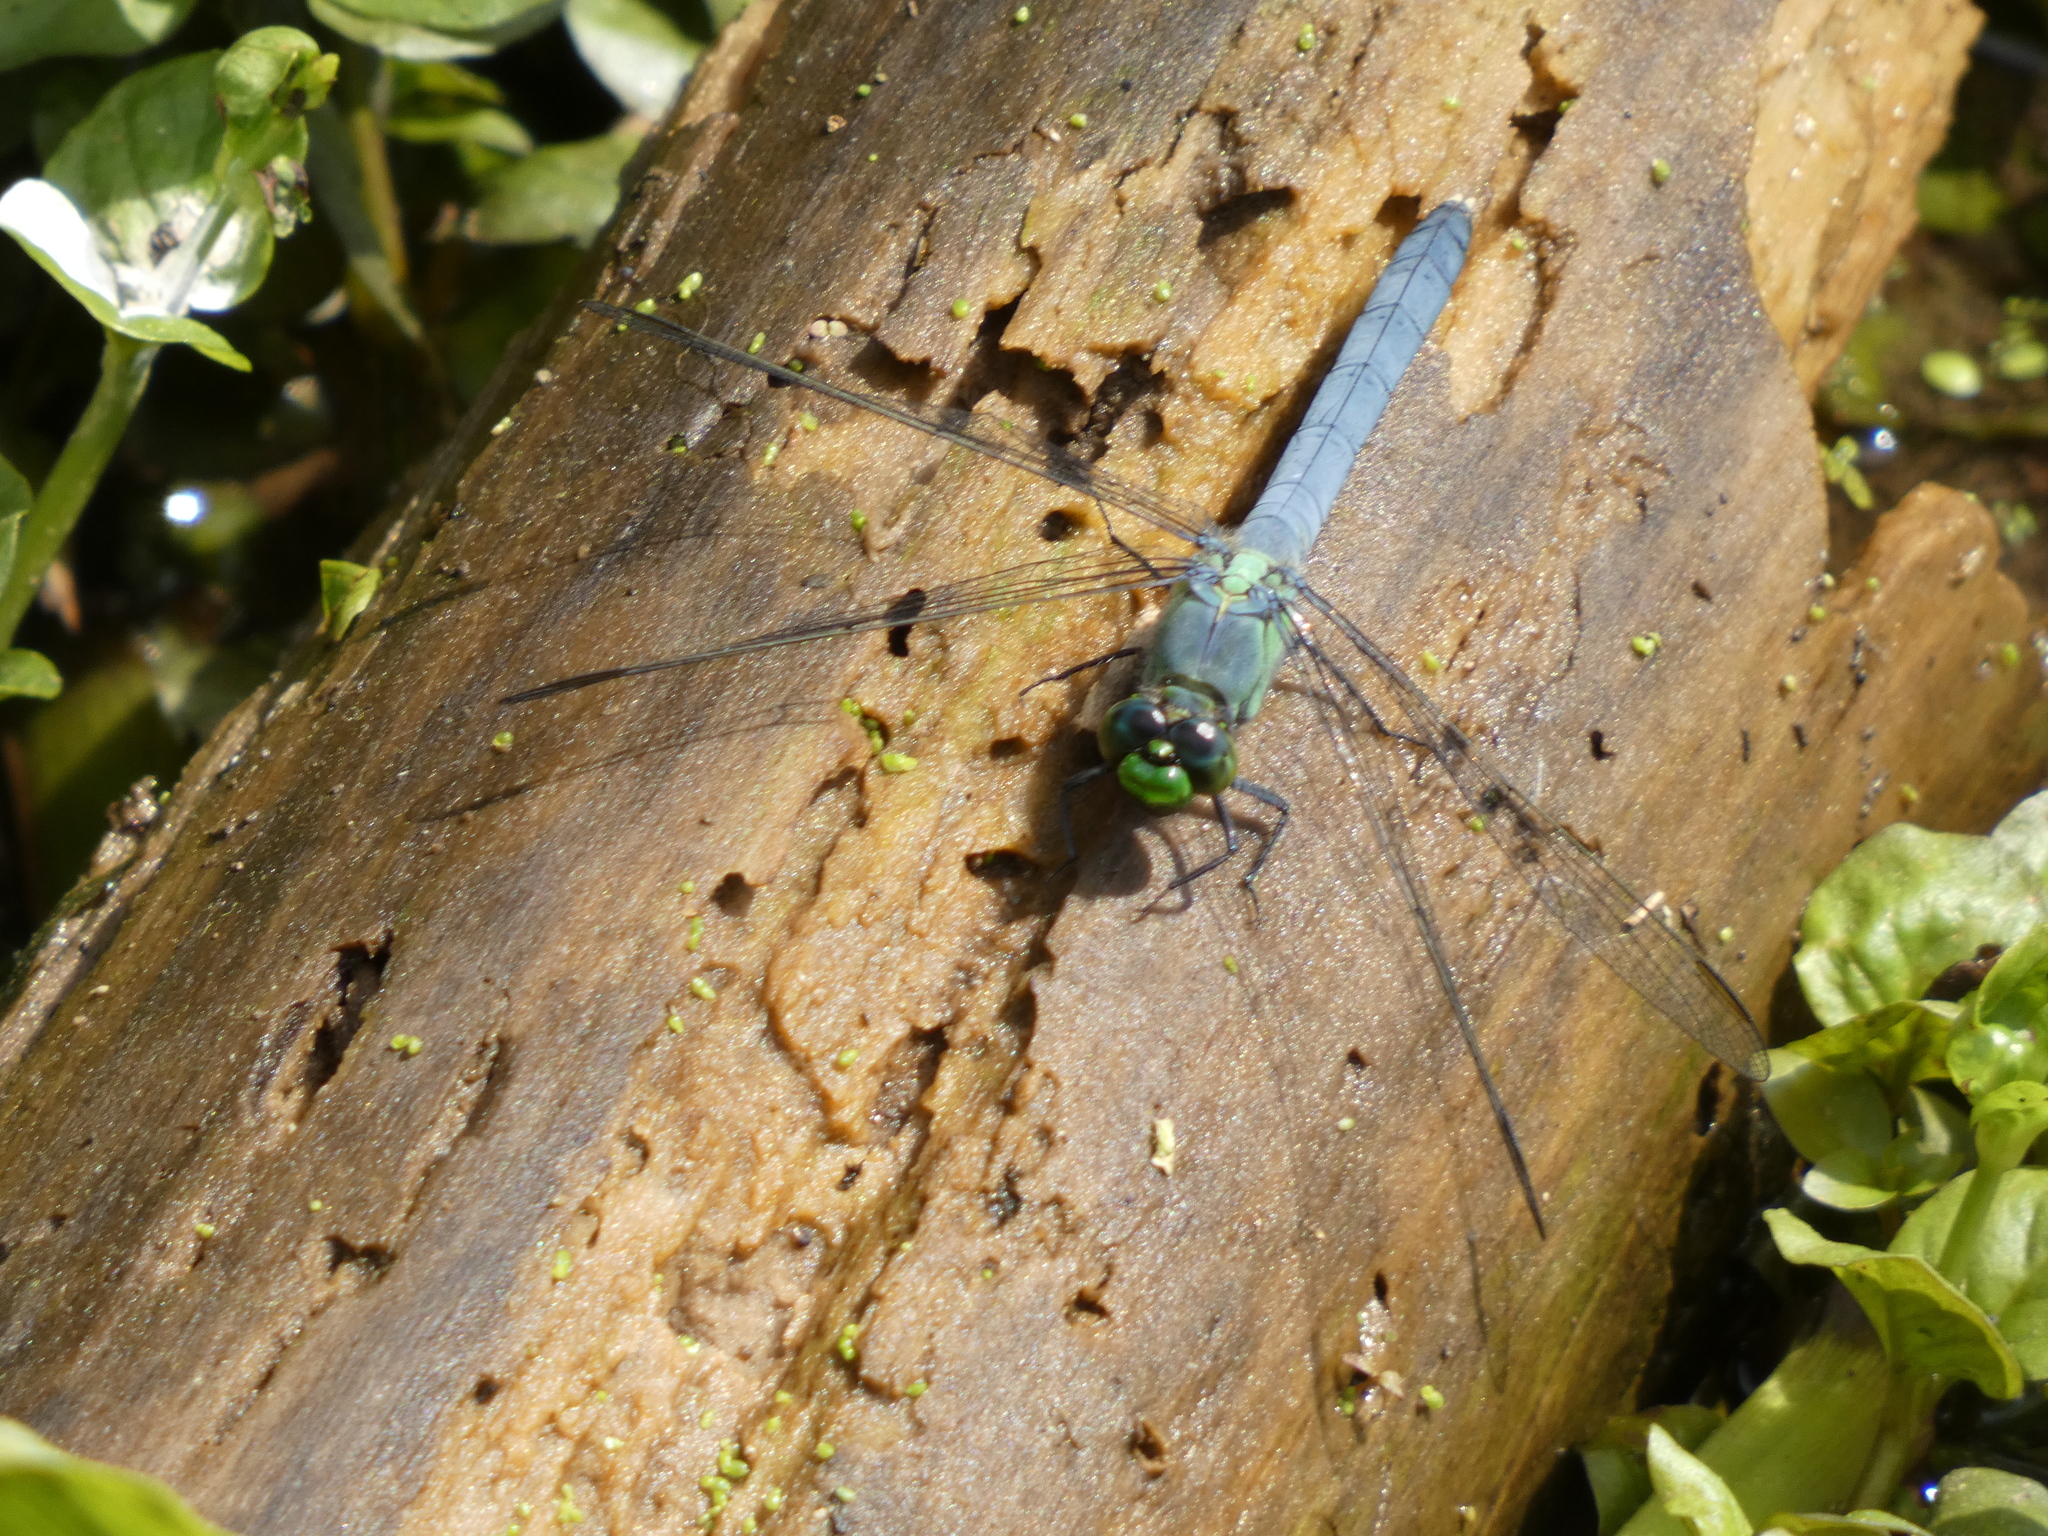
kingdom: Animalia
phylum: Arthropoda
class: Insecta
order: Odonata
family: Libellulidae
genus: Erythemis
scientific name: Erythemis simplicicollis
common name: Eastern pondhawk
